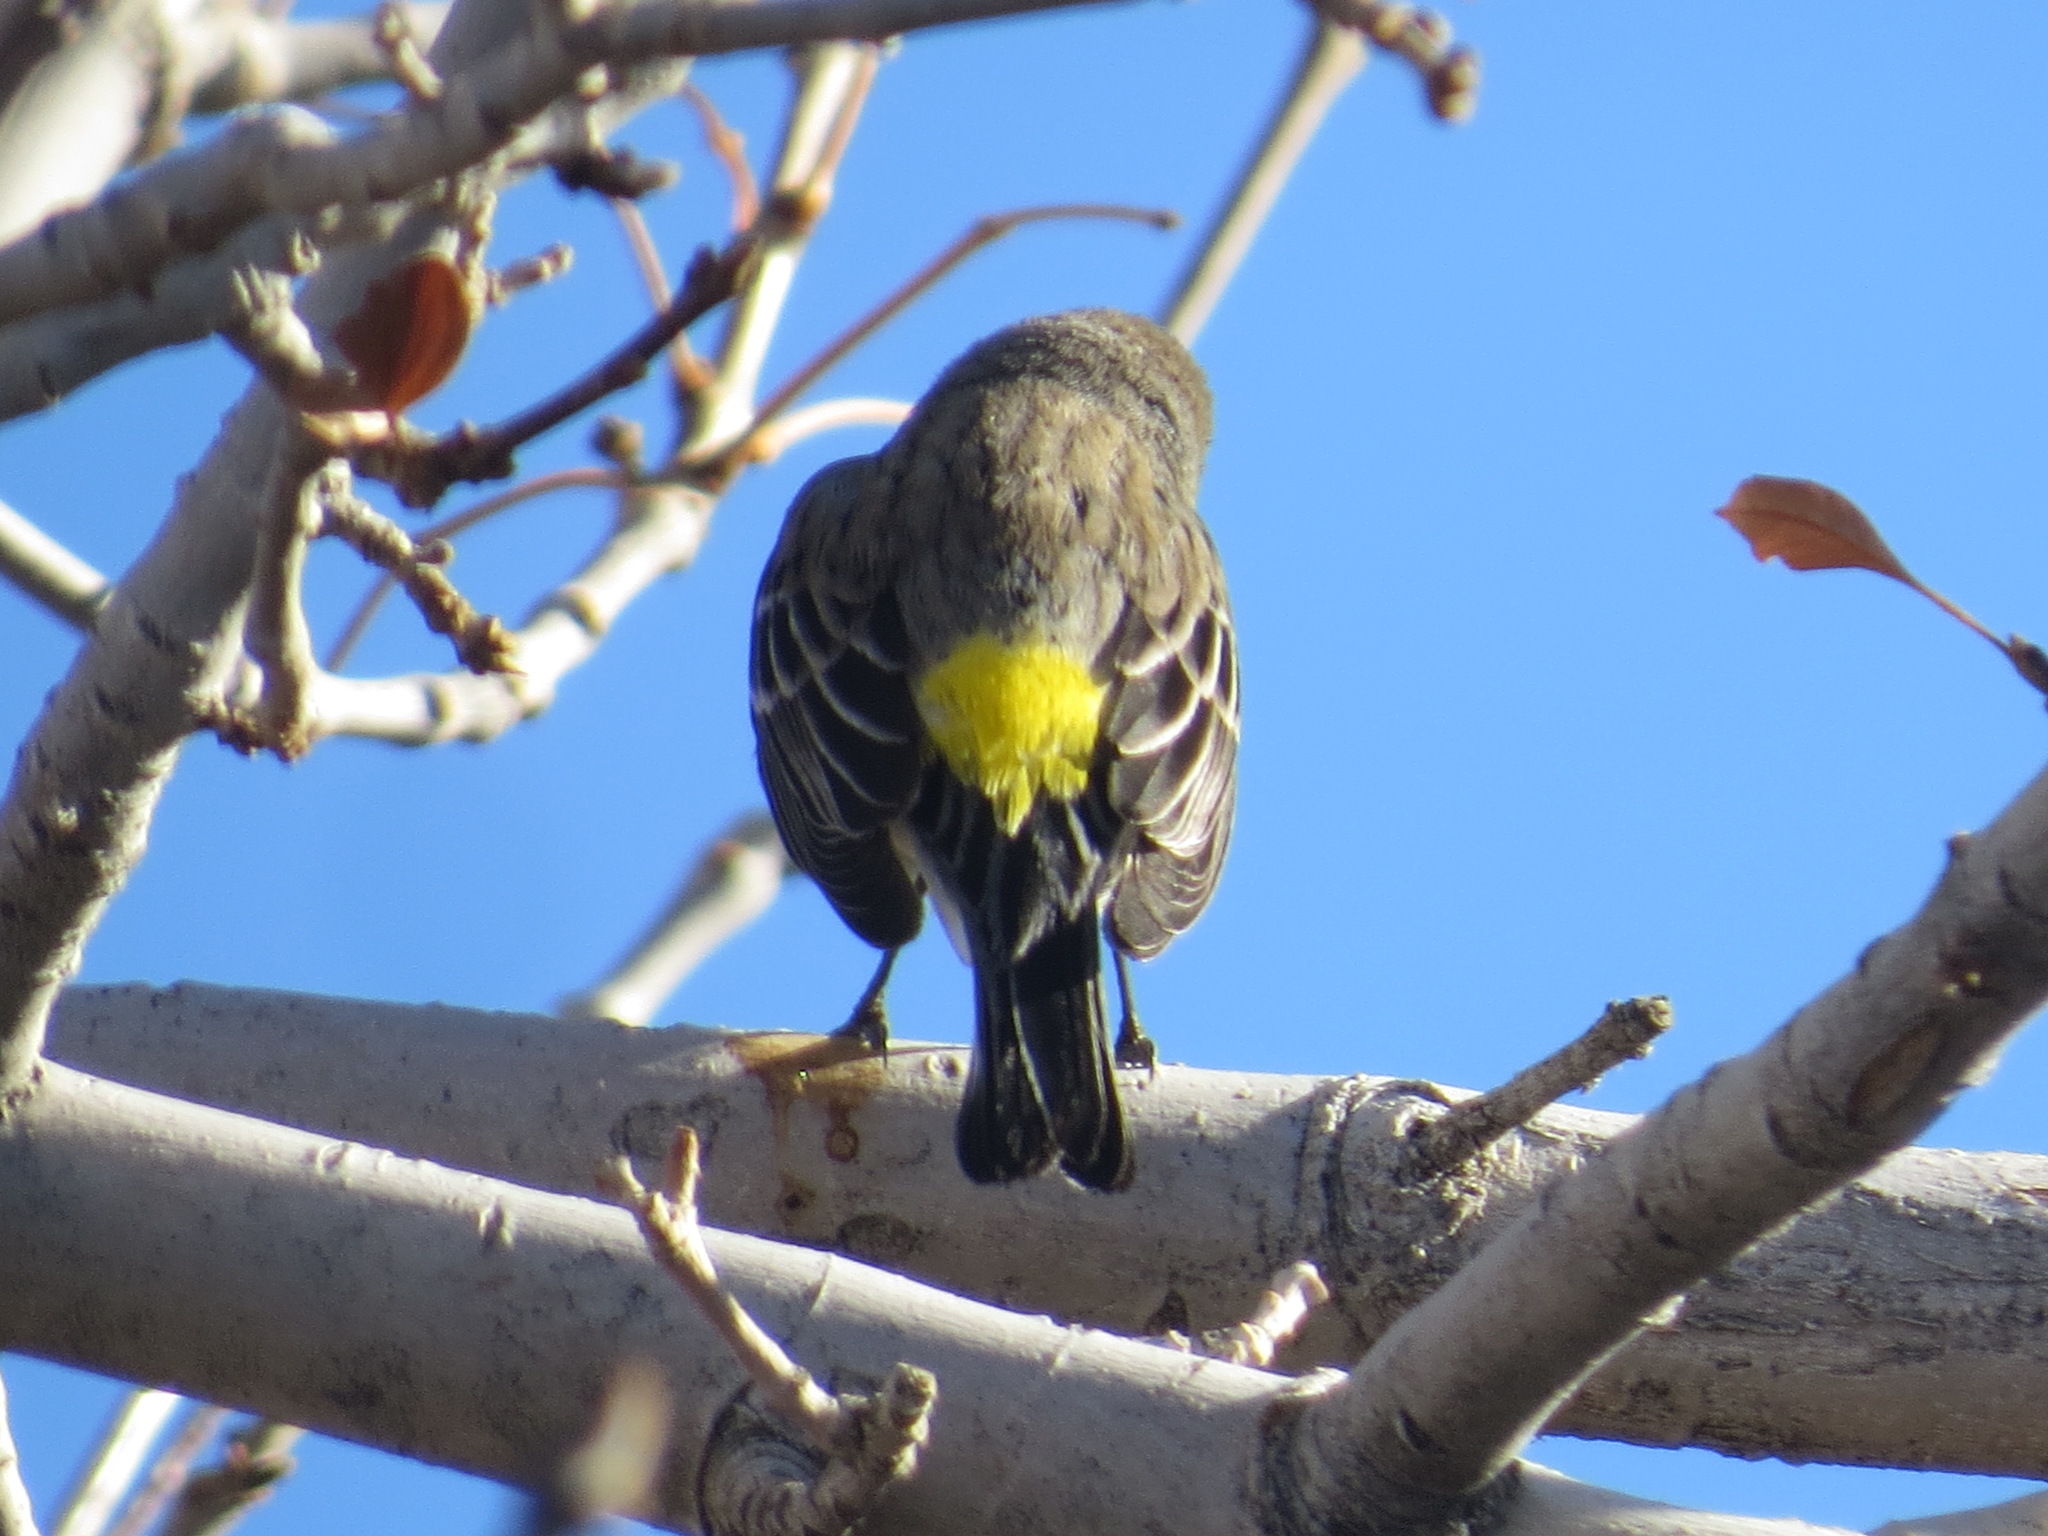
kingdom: Animalia
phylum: Chordata
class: Aves
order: Passeriformes
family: Parulidae
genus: Setophaga
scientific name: Setophaga coronata
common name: Myrtle warbler
